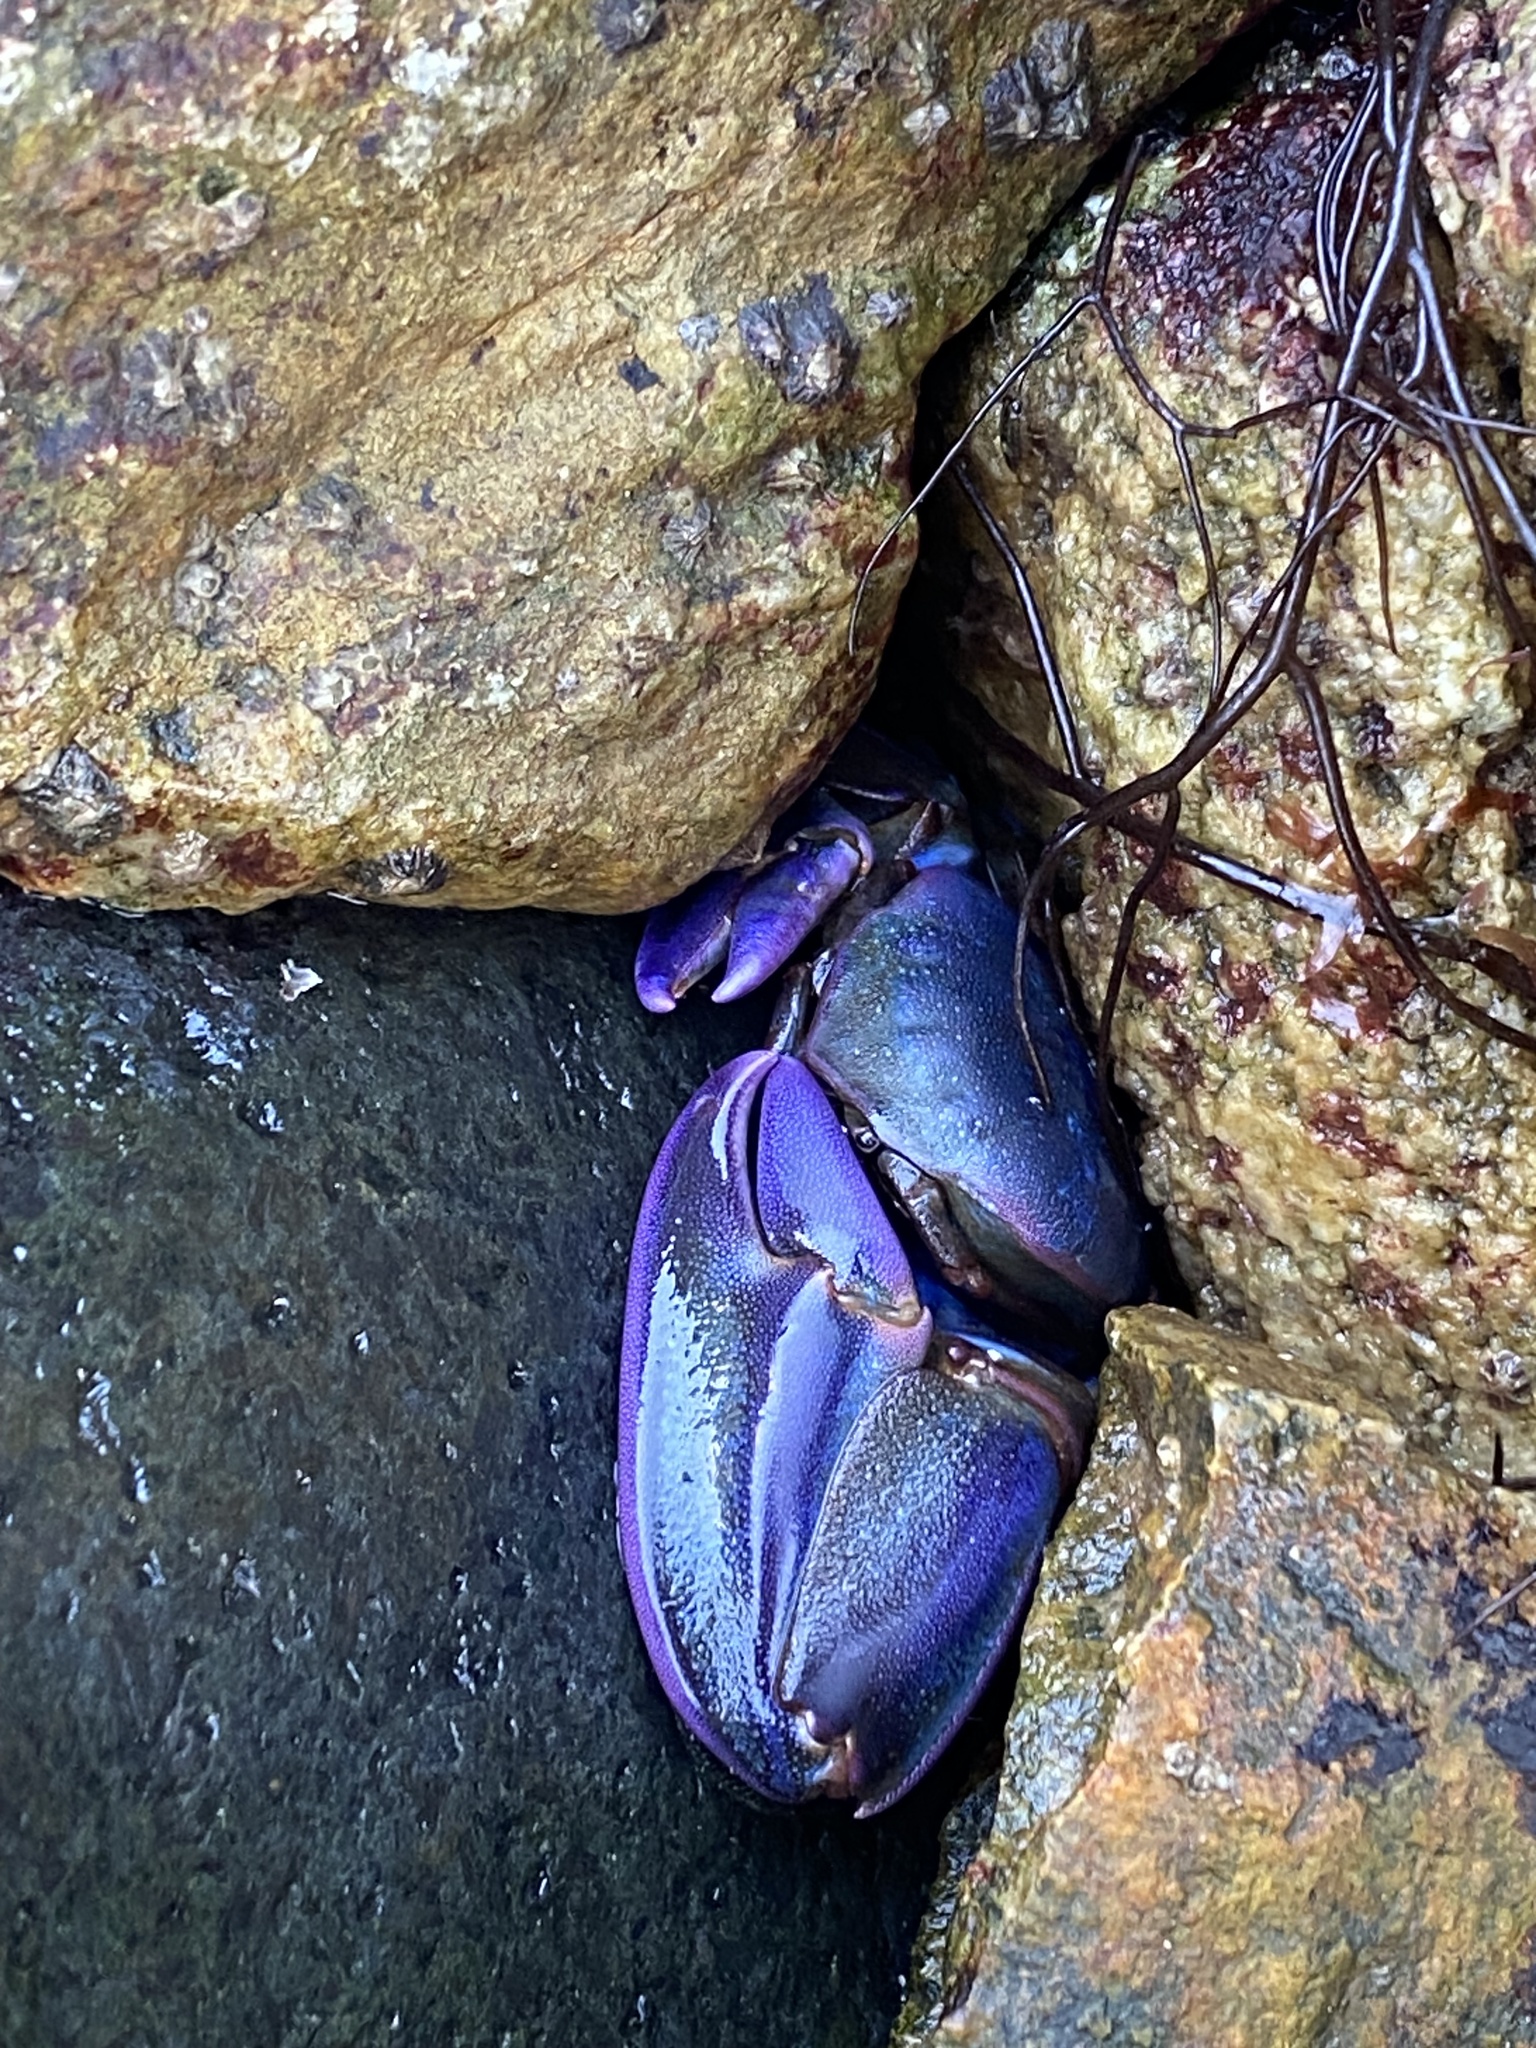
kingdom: Animalia
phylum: Arthropoda
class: Malacostraca
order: Decapoda
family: Porcellanidae
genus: Petrolisthes
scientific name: Petrolisthes violaceus
